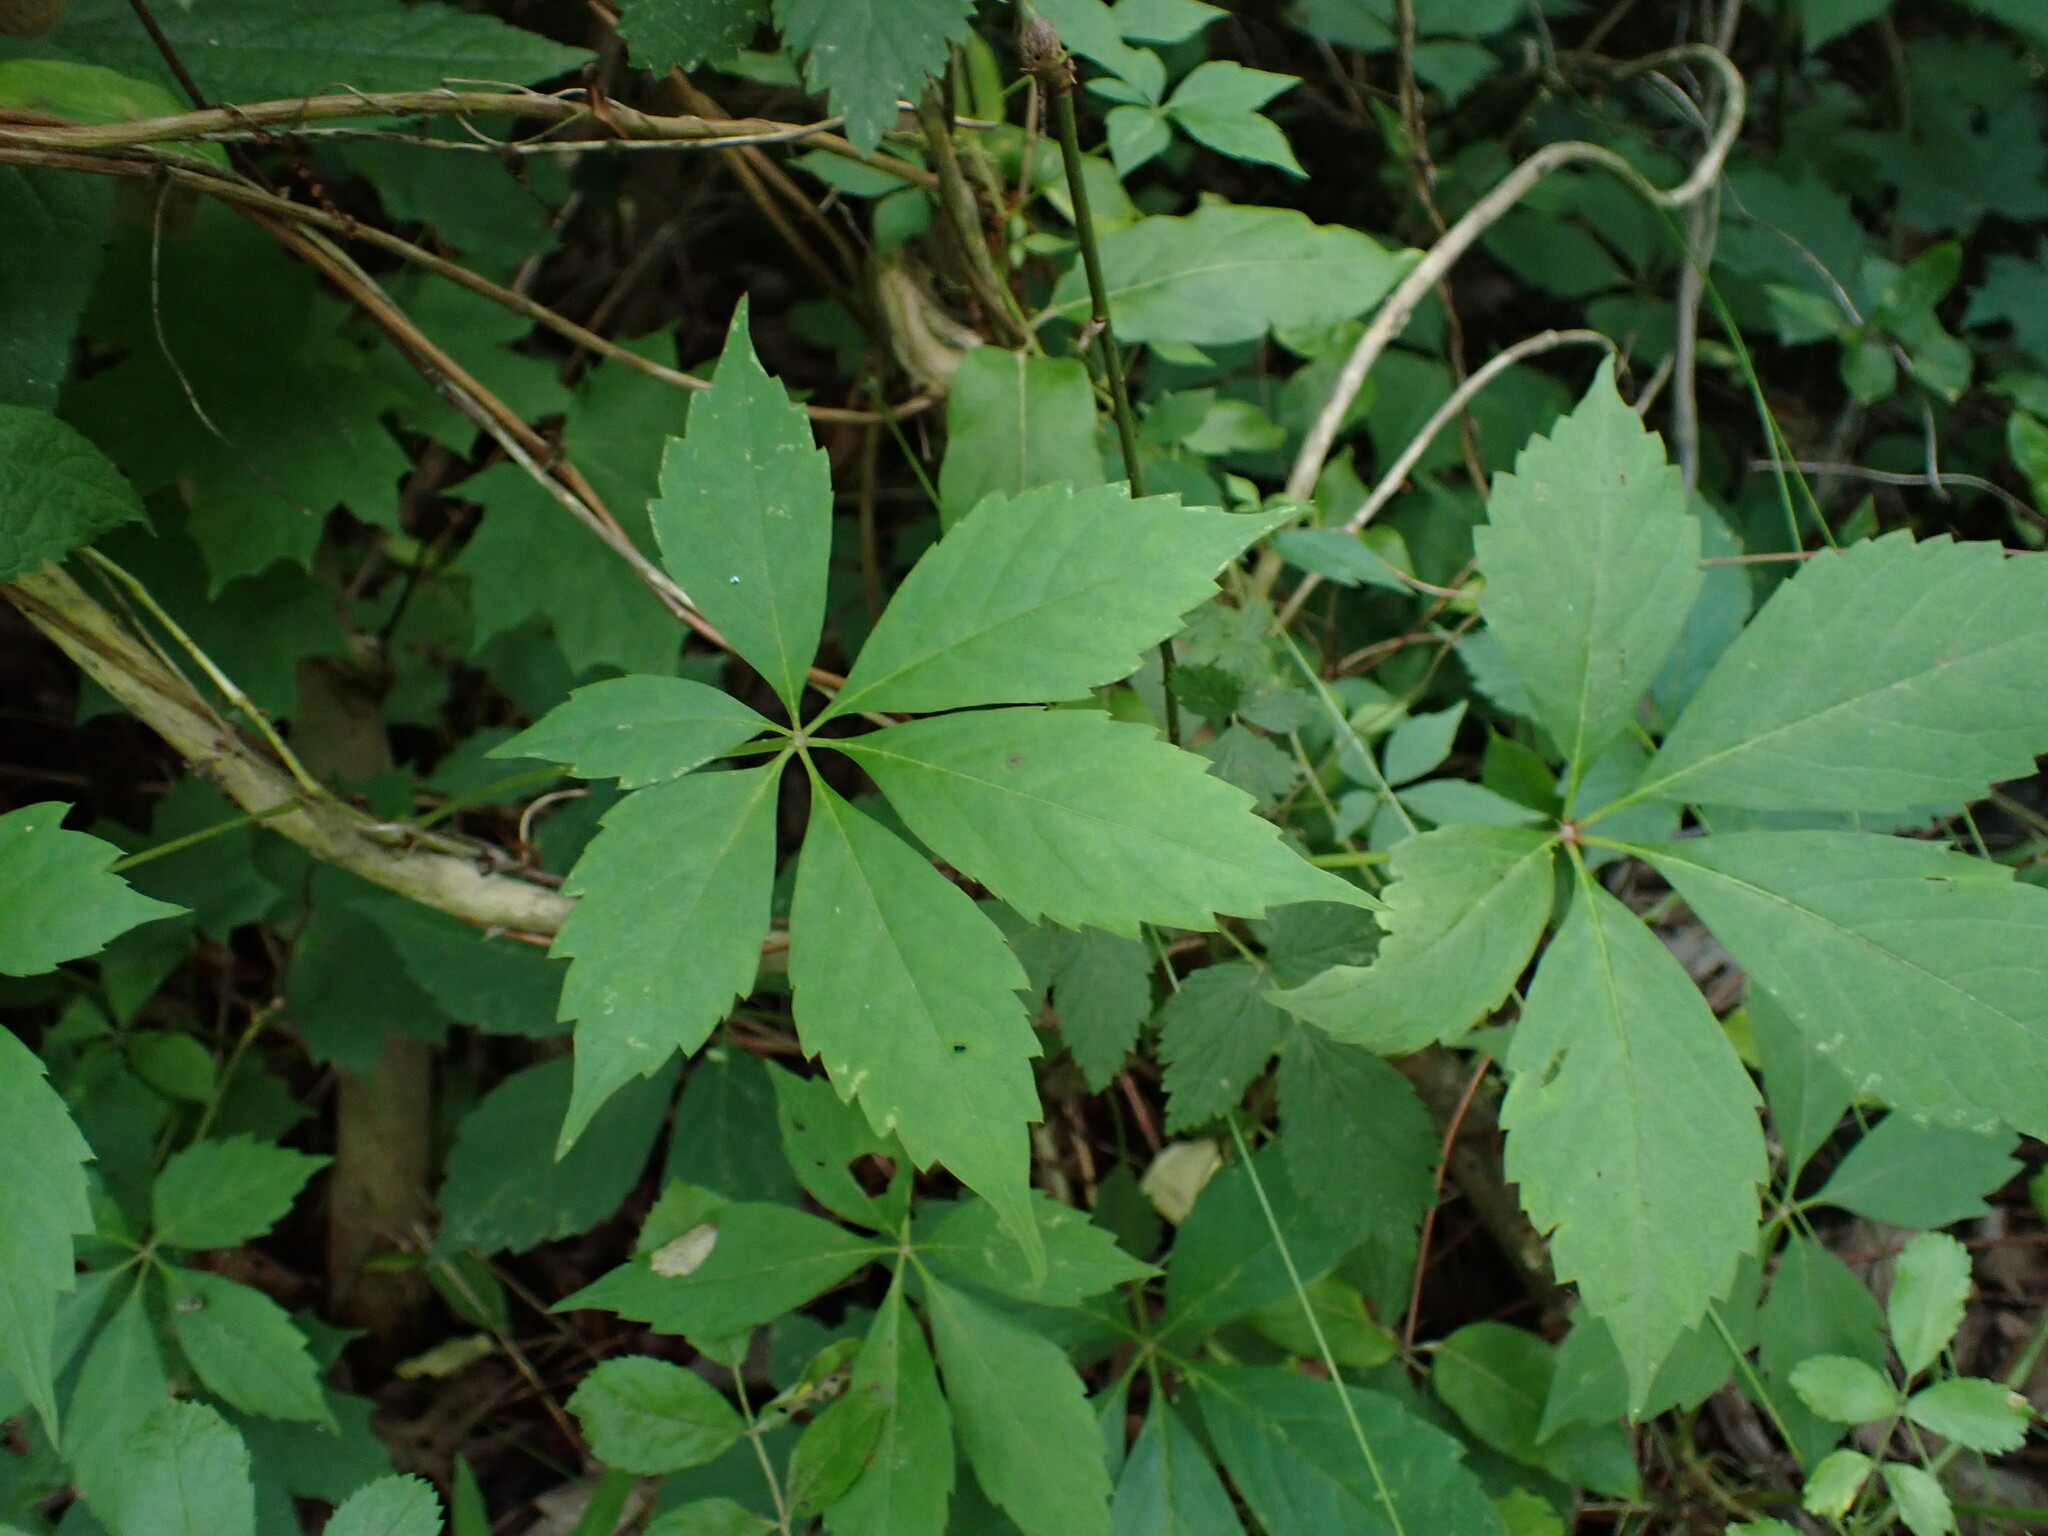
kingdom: Plantae
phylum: Tracheophyta
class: Magnoliopsida
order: Vitales
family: Vitaceae
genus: Parthenocissus
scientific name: Parthenocissus quinquefolia
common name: Virginia-creeper
